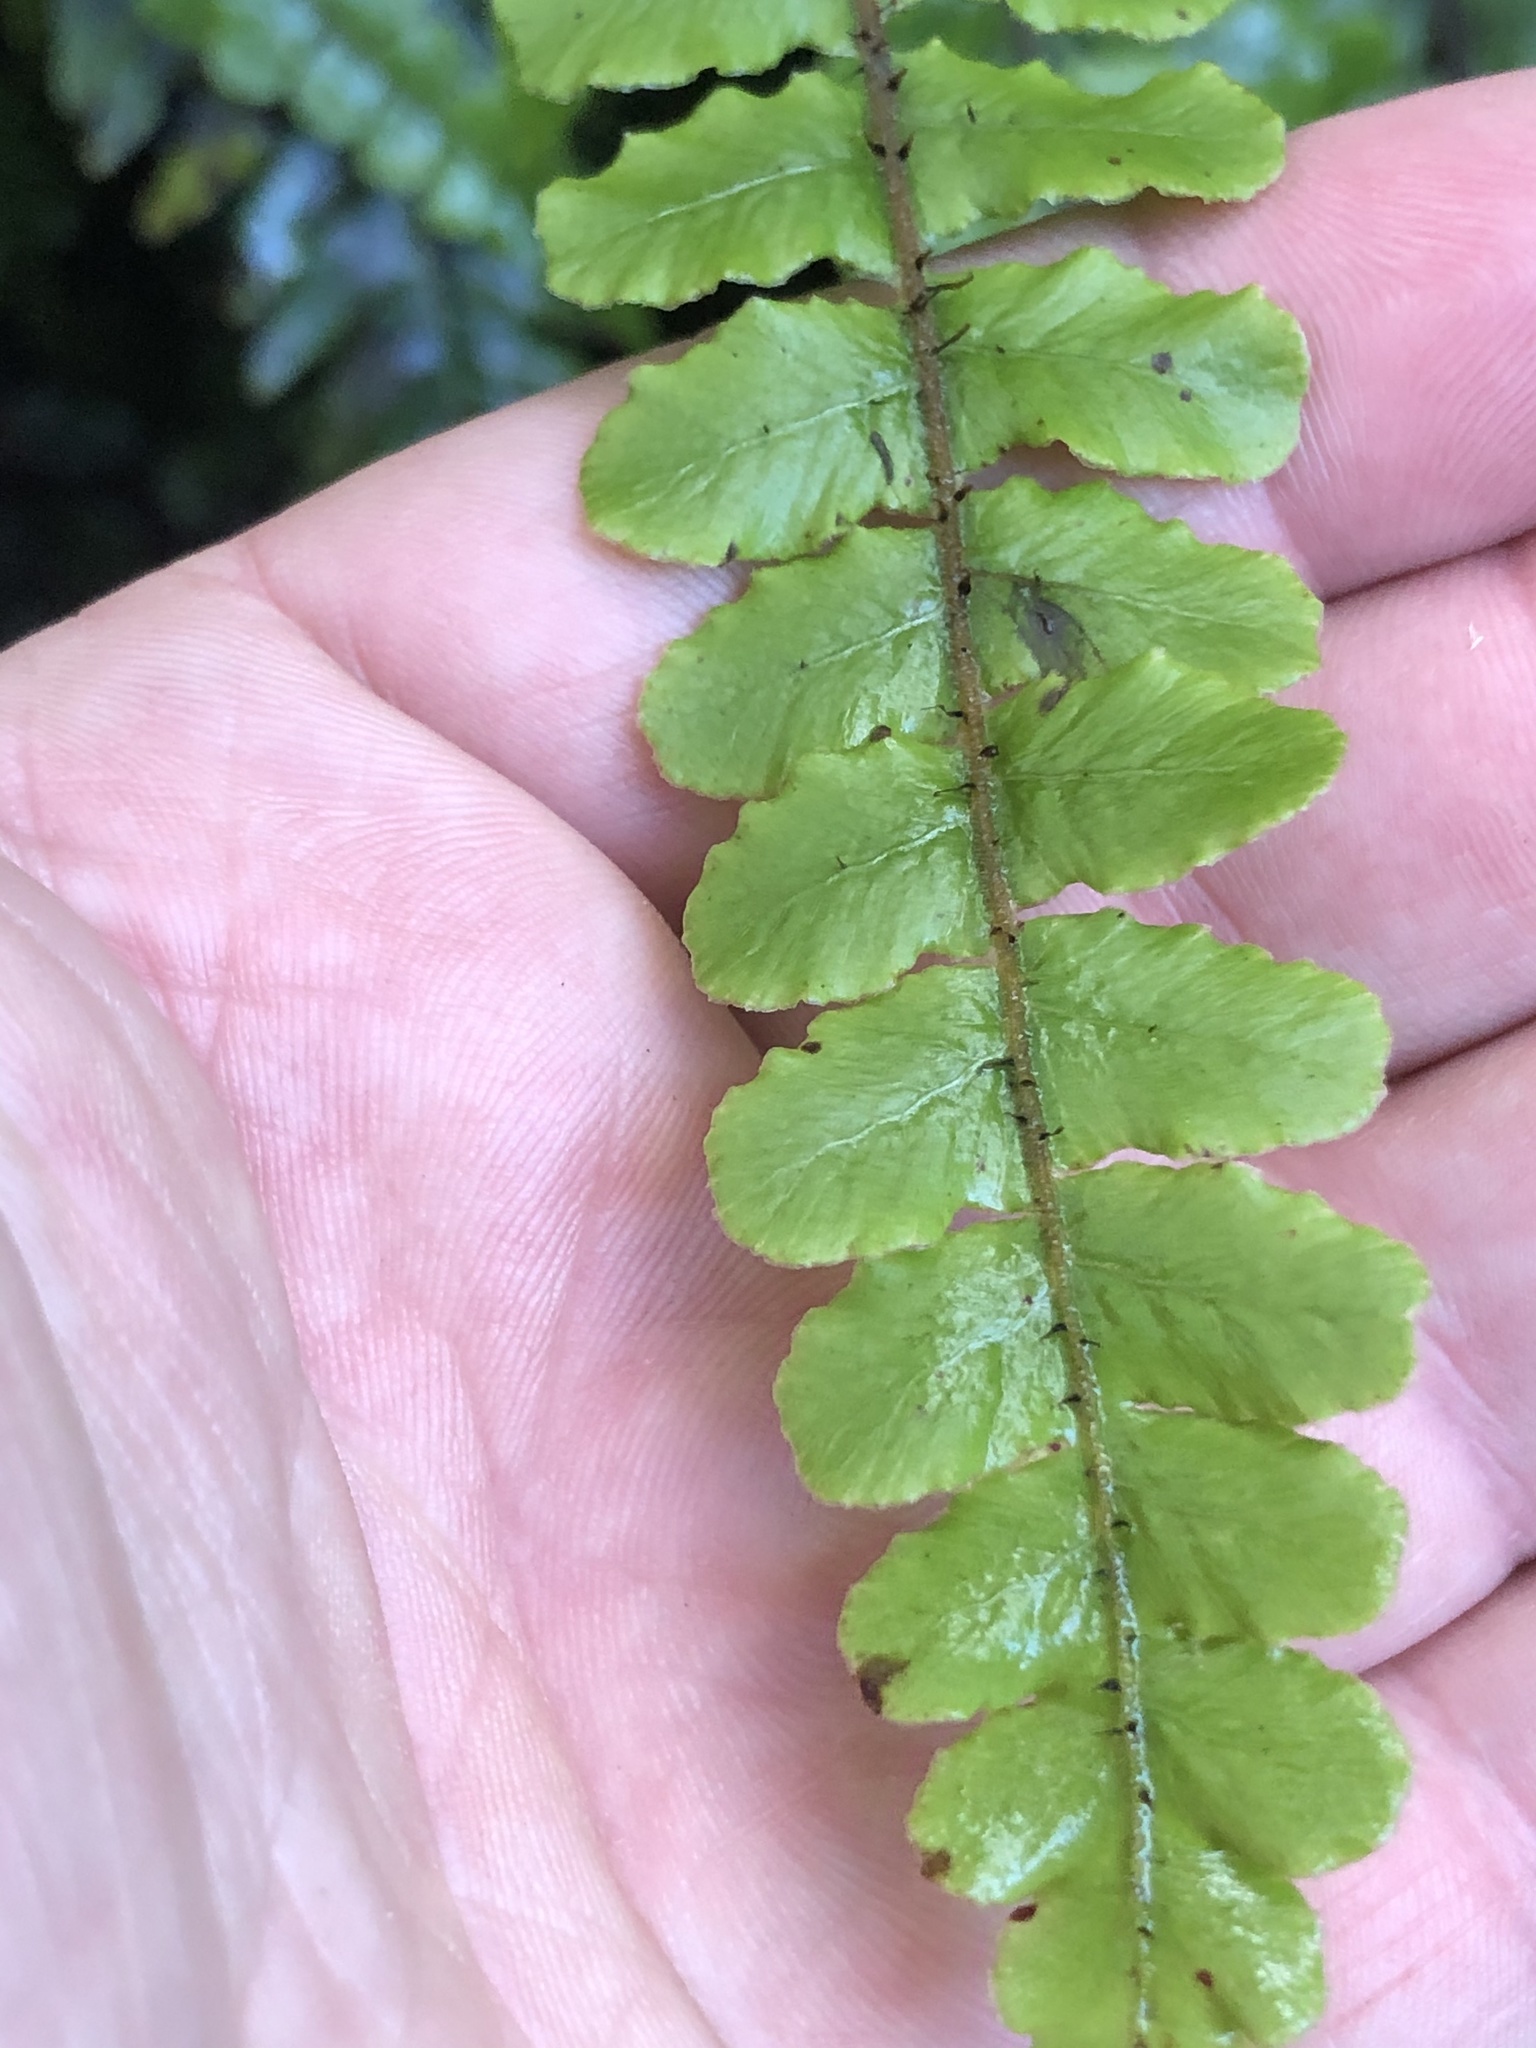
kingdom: Plantae
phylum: Tracheophyta
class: Polypodiopsida
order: Polypodiales
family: Blechnaceae
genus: Cranfillia
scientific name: Cranfillia fluviatilis
